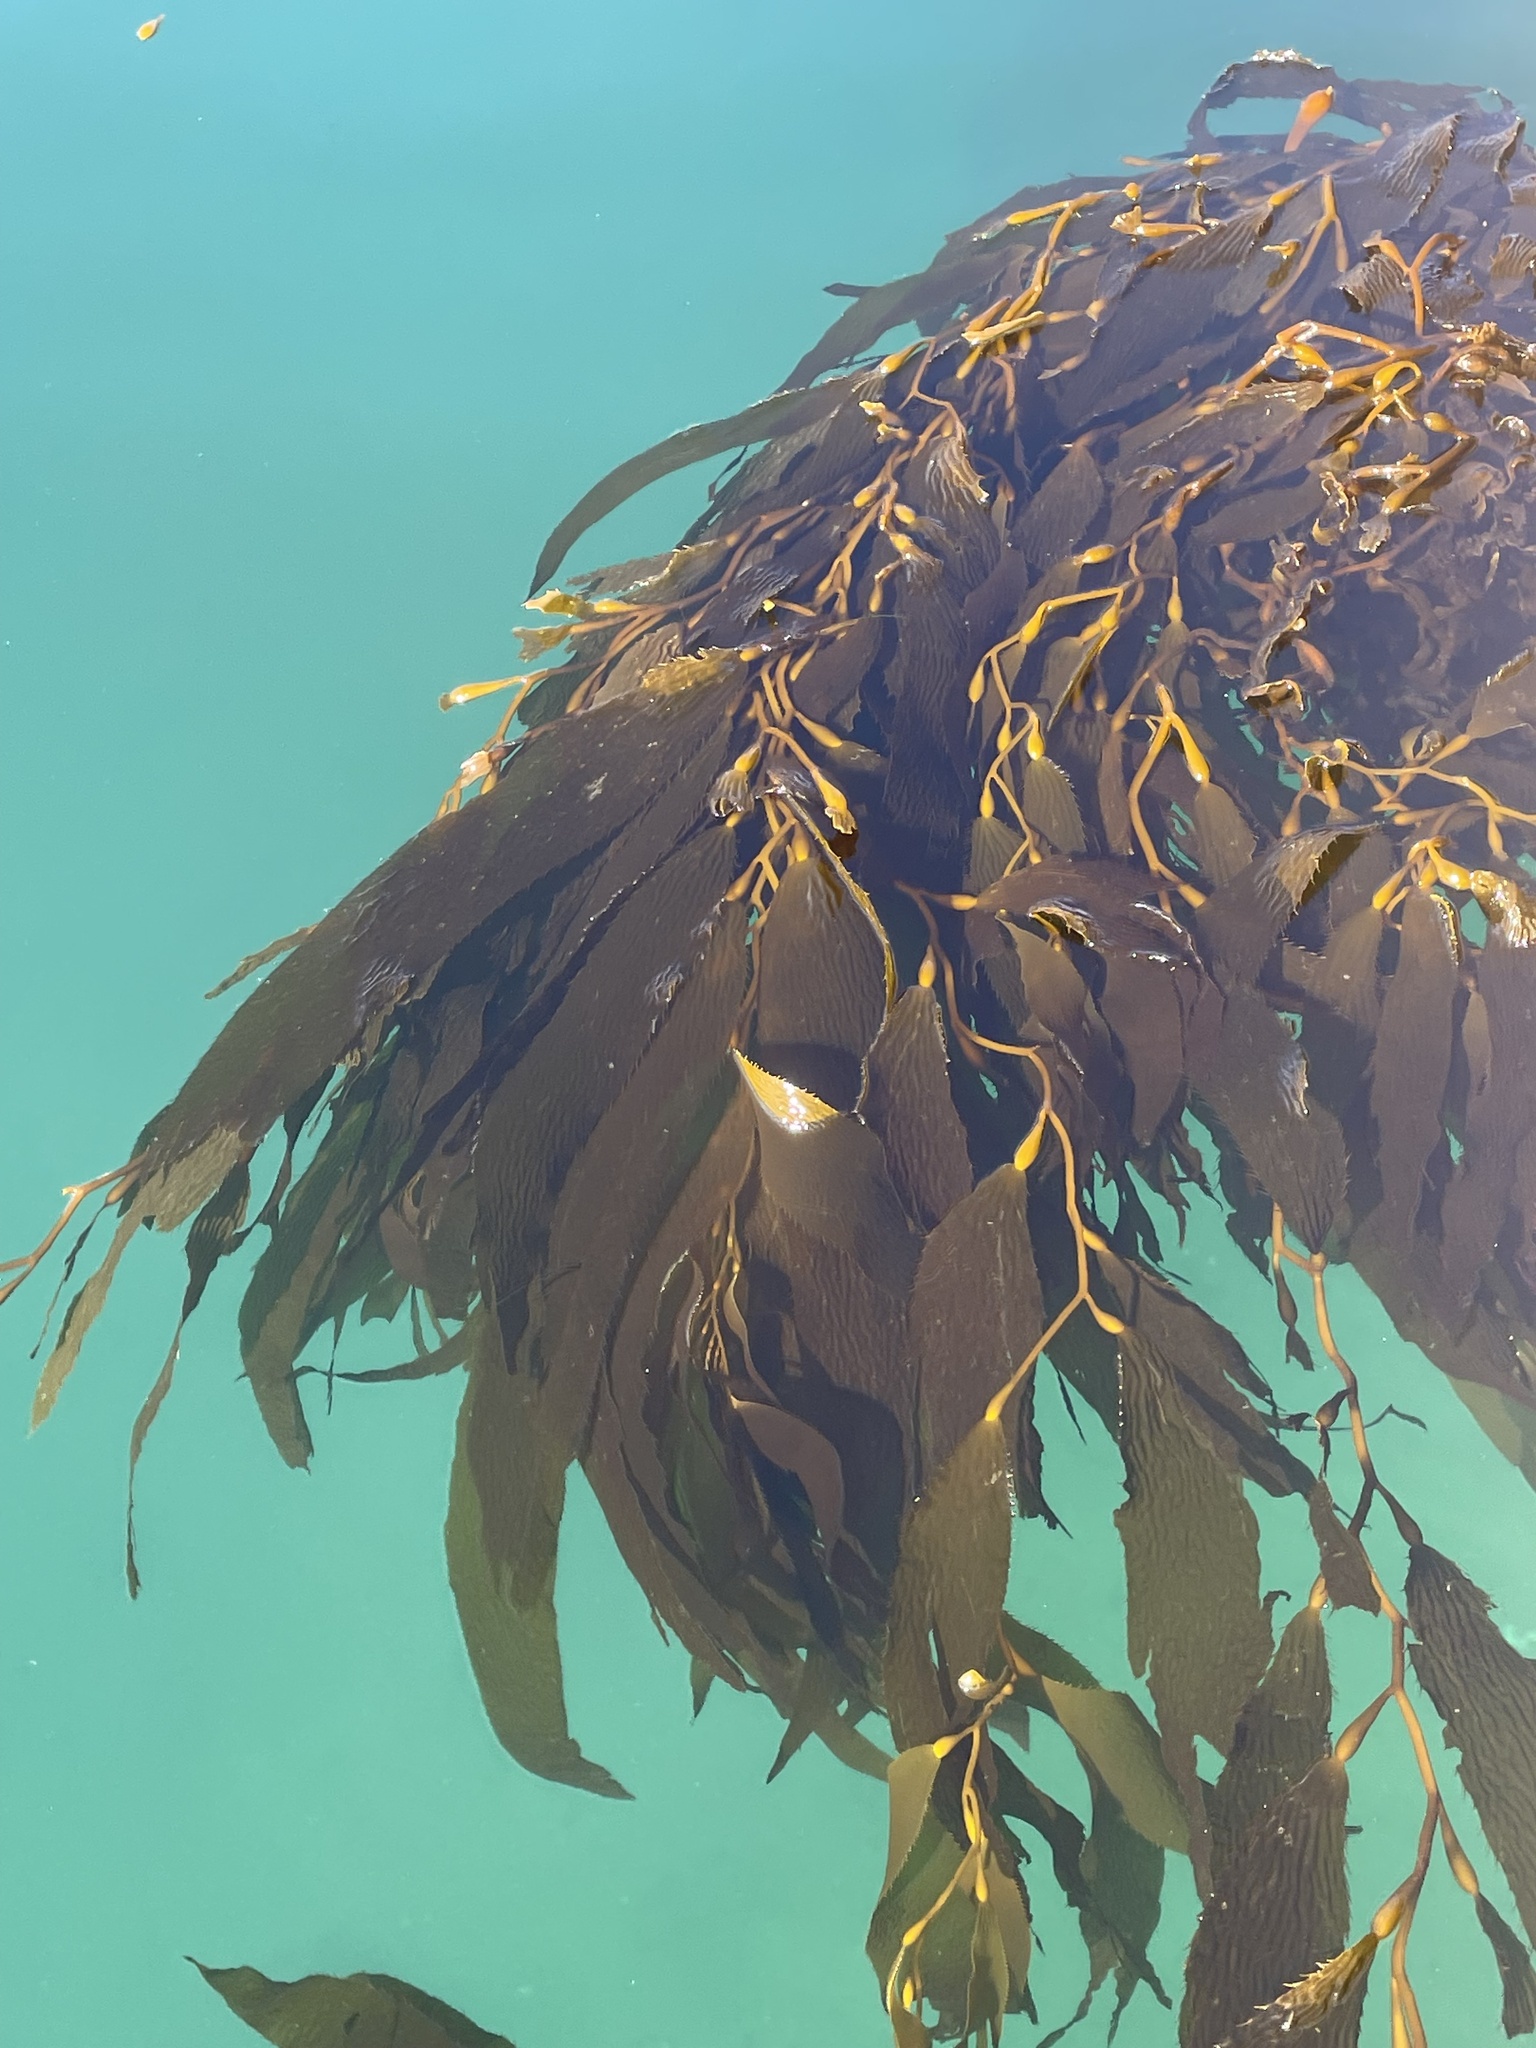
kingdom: Chromista
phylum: Ochrophyta
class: Phaeophyceae
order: Laminariales
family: Laminariaceae
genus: Macrocystis
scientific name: Macrocystis pyrifera
